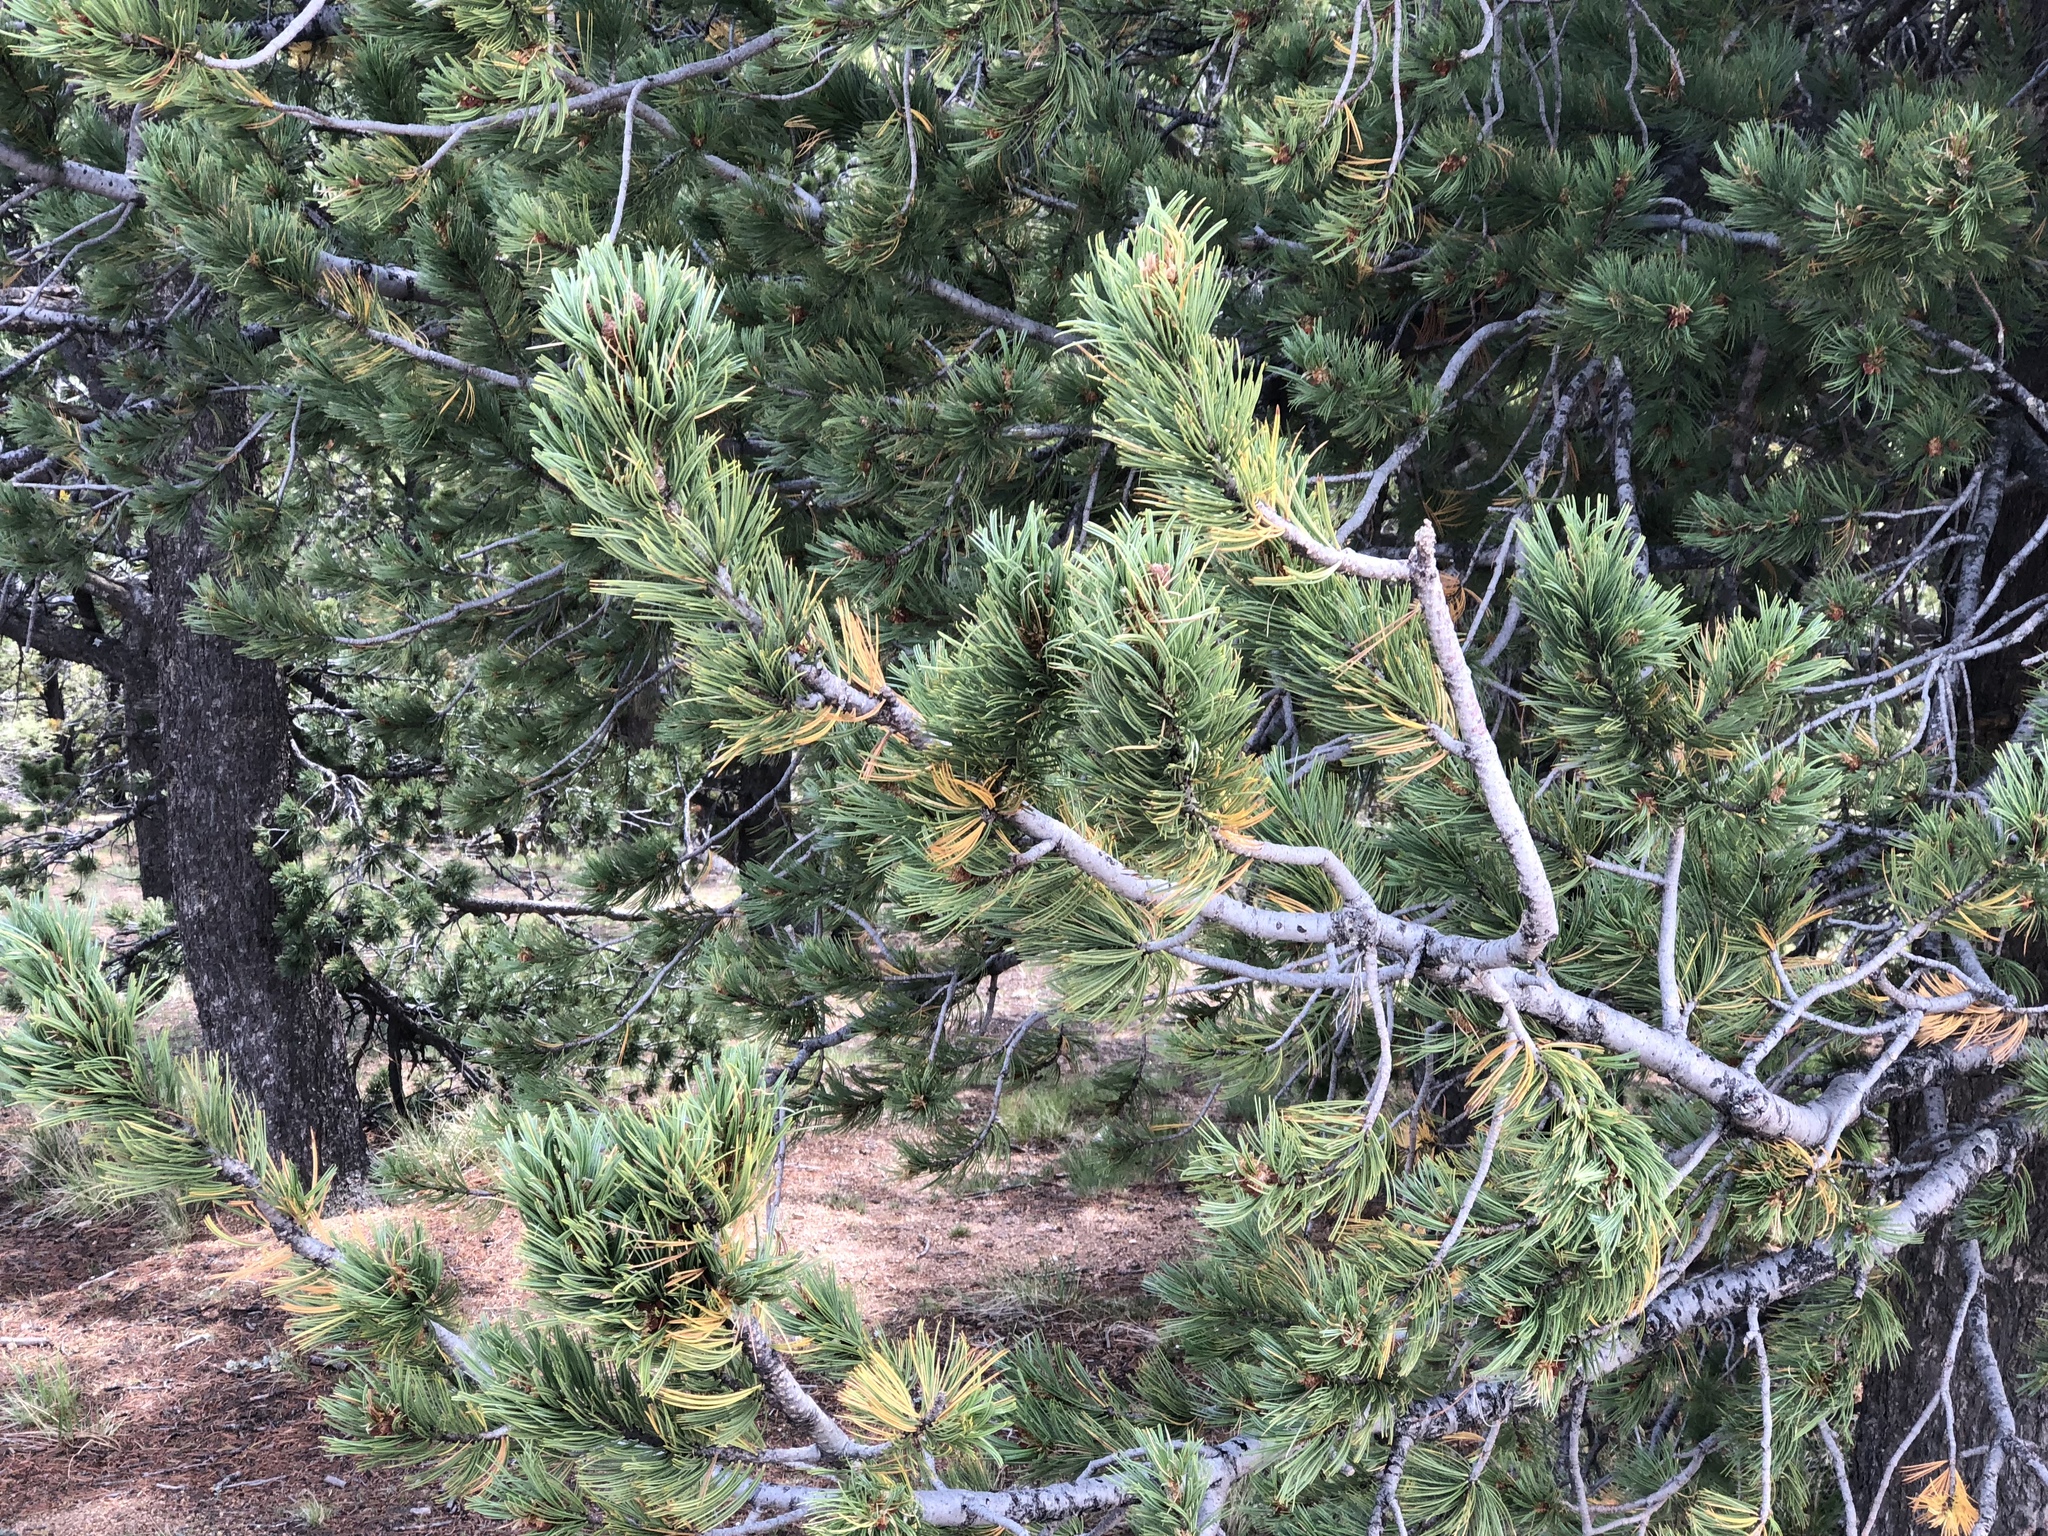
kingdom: Plantae
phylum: Tracheophyta
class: Pinopsida
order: Pinales
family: Pinaceae
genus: Pinus
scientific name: Pinus flexilis
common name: Limber pine
